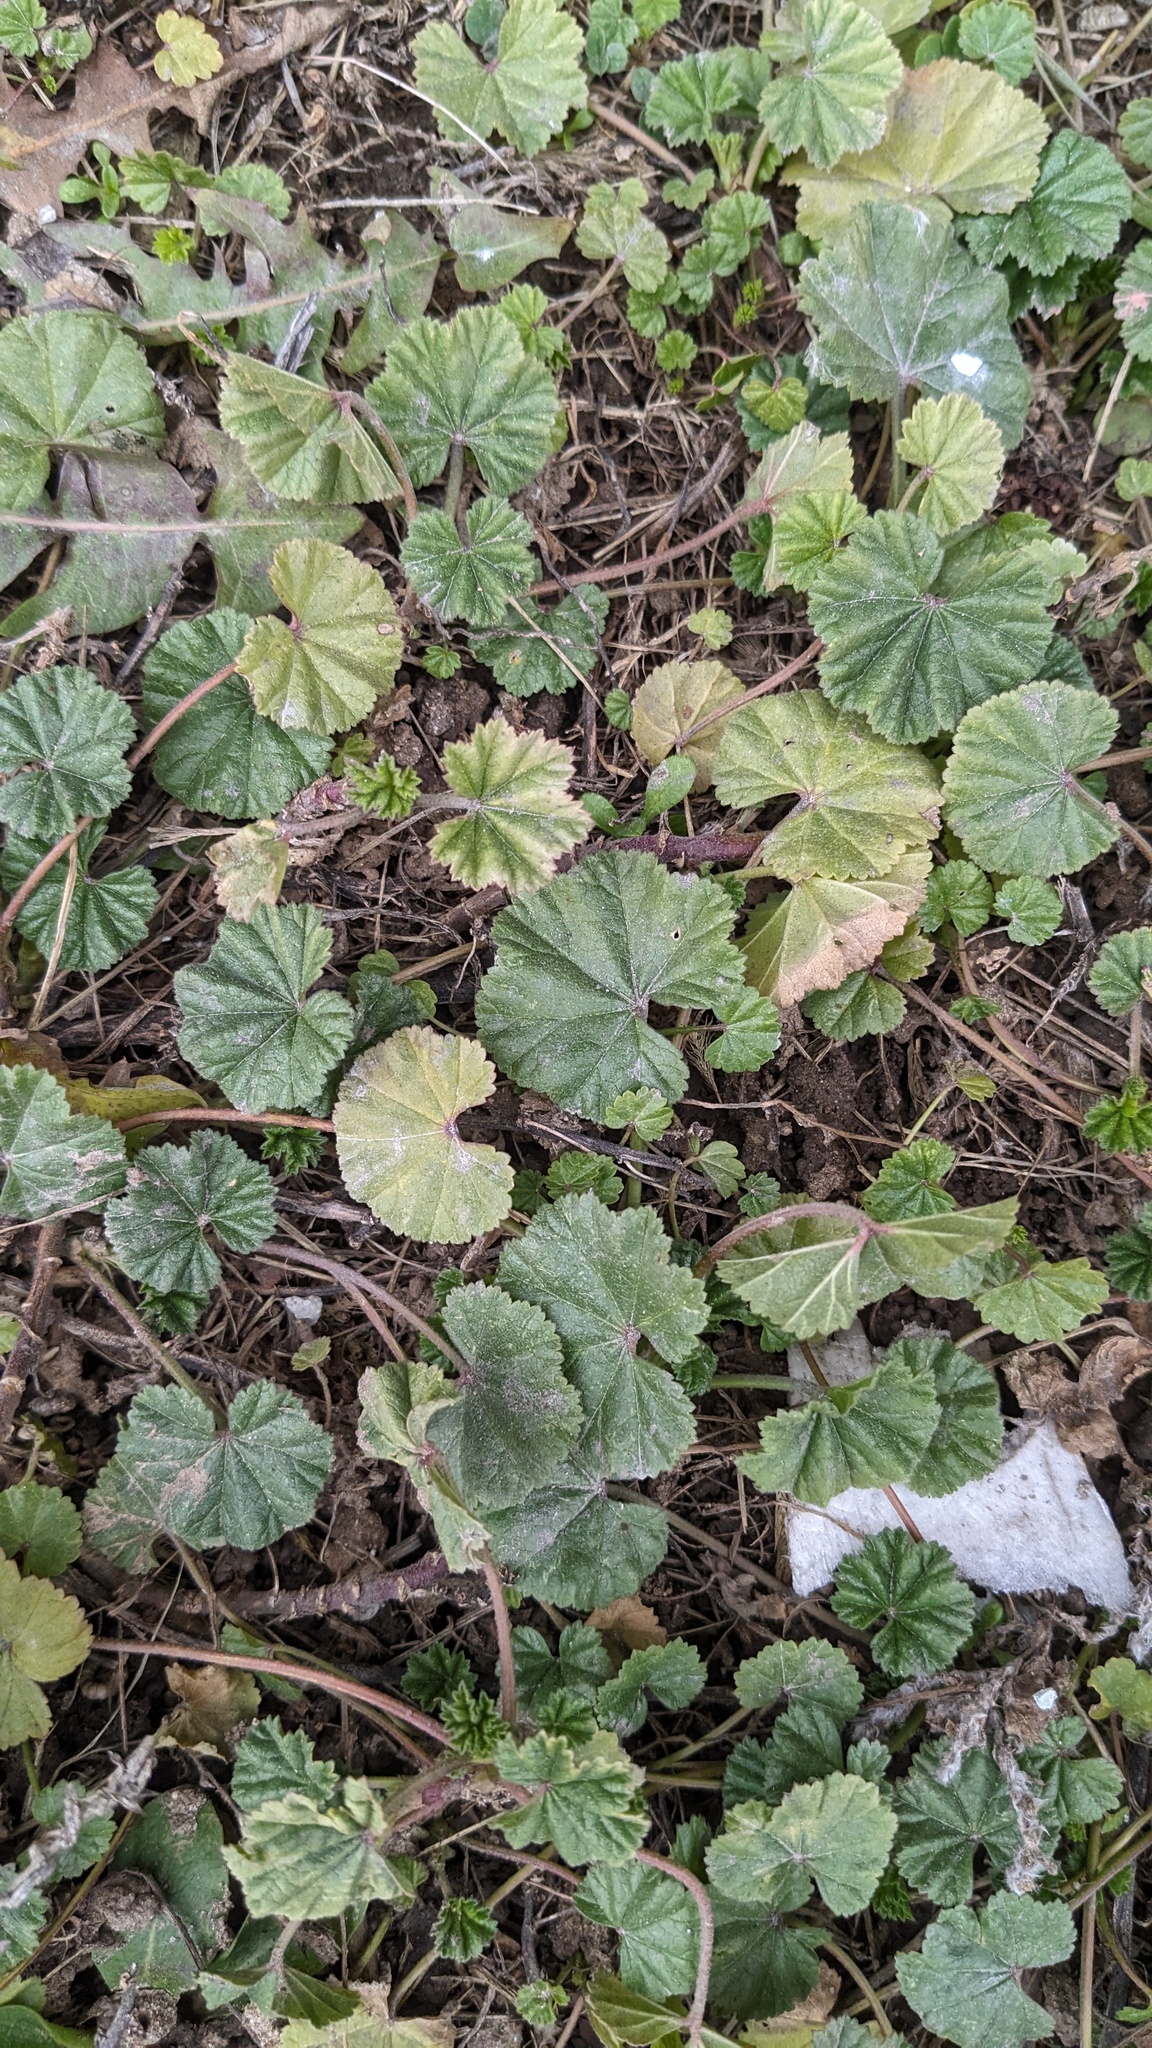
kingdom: Plantae
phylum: Tracheophyta
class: Magnoliopsida
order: Malvales
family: Malvaceae
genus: Malva
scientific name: Malva neglecta
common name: Common mallow
